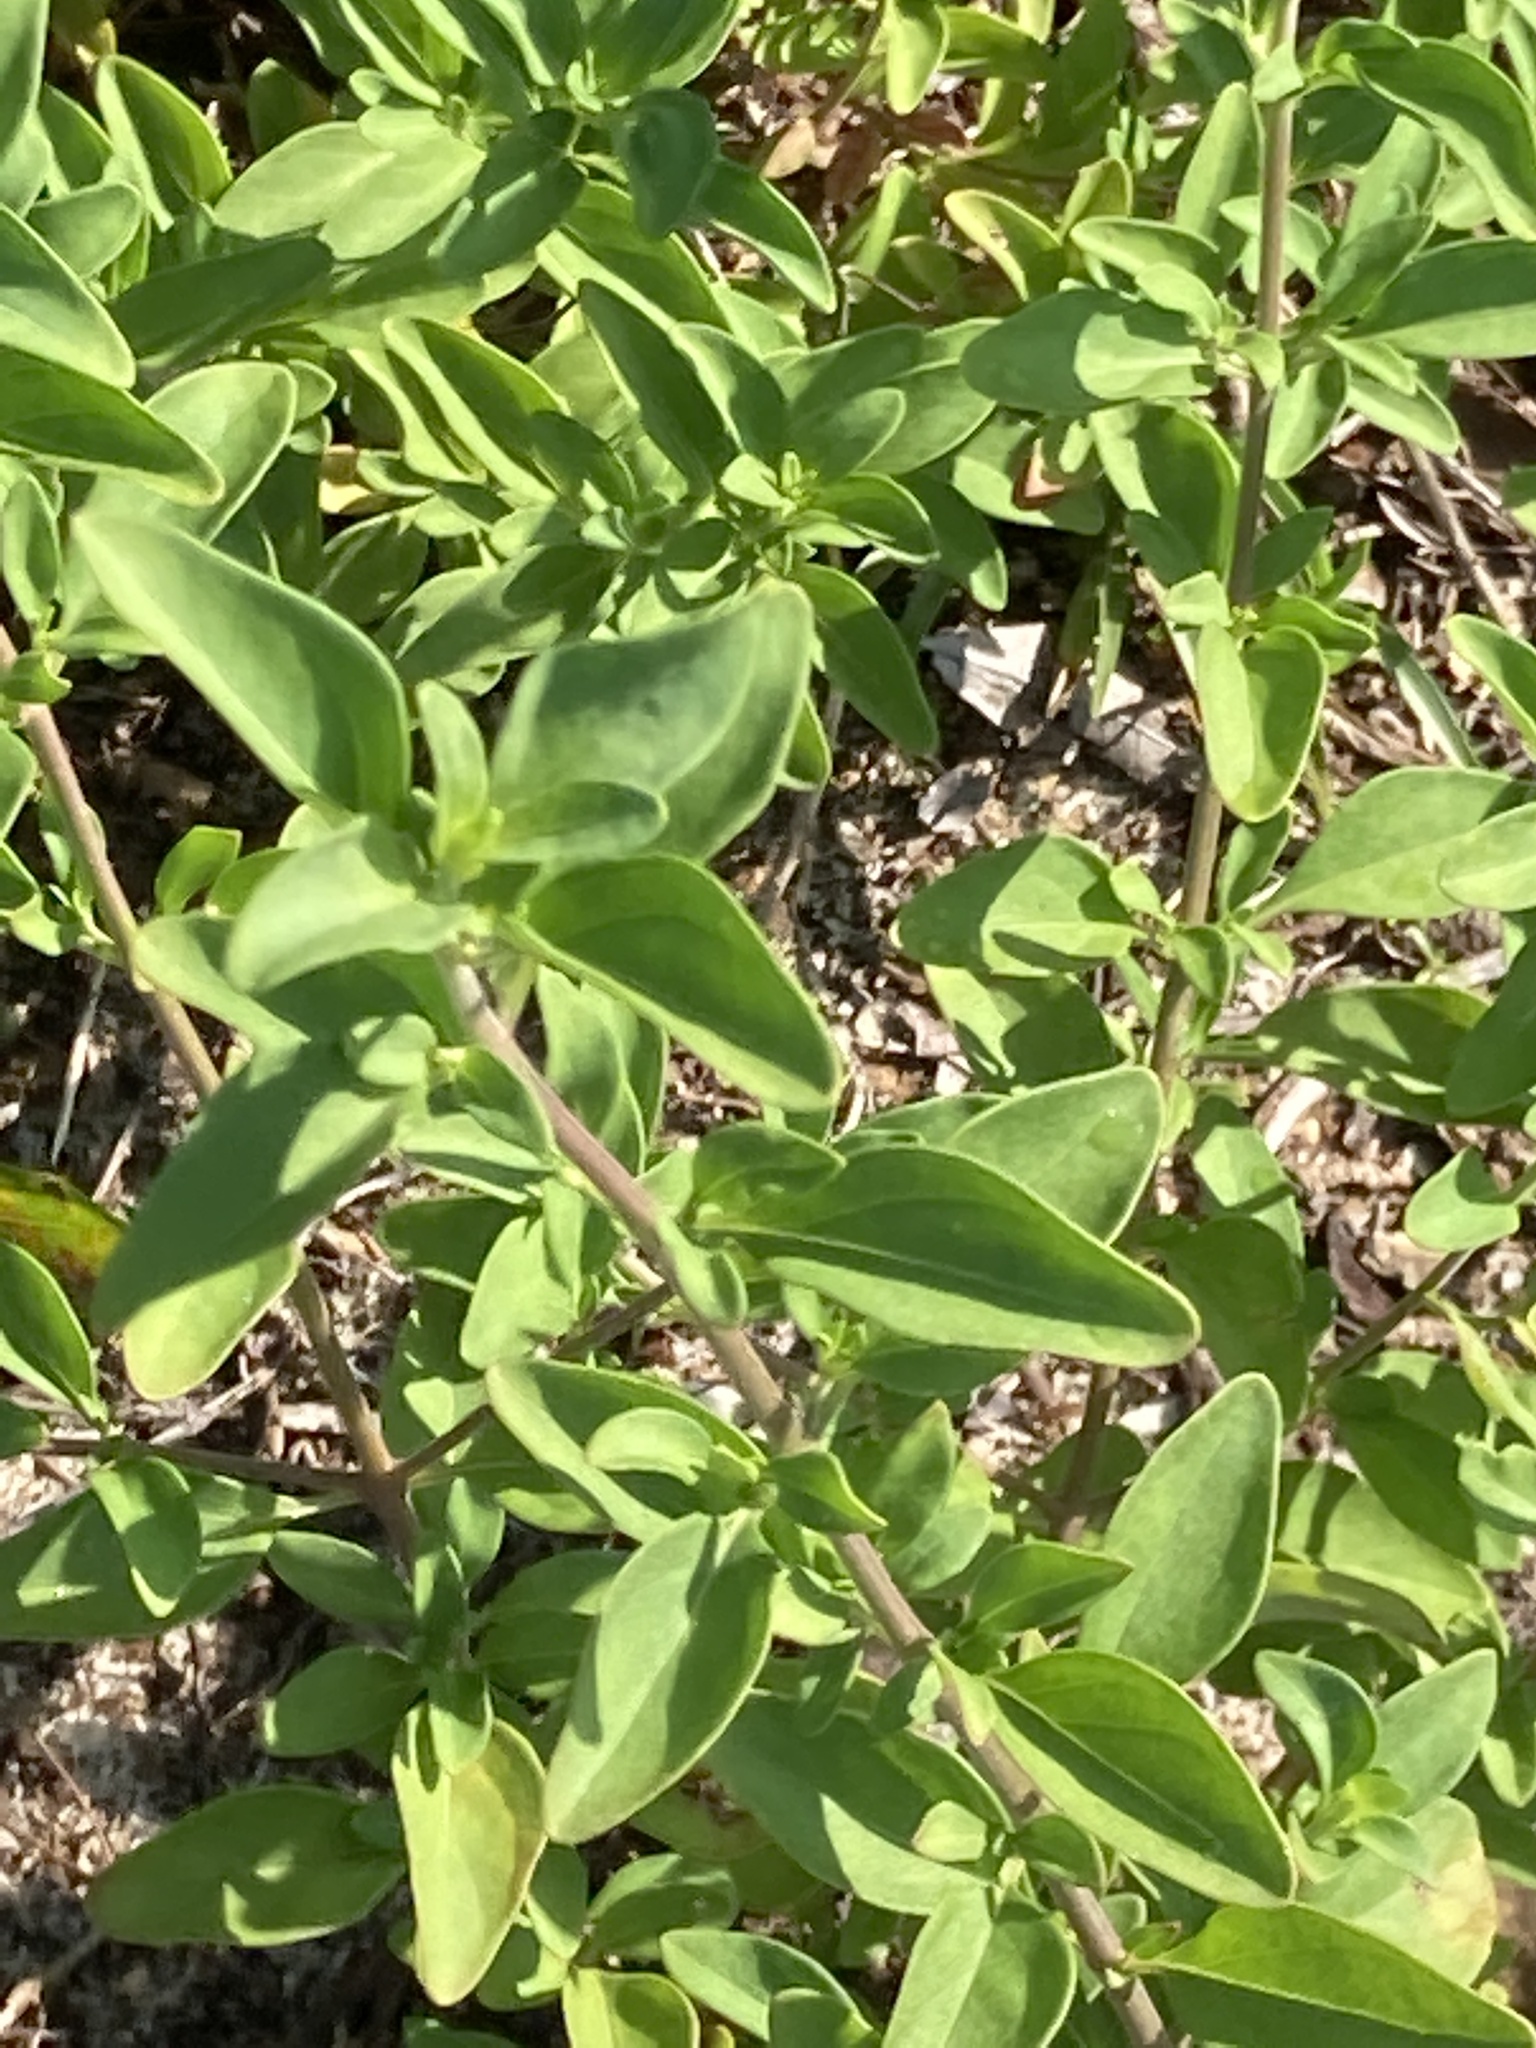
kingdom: Plantae
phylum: Tracheophyta
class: Magnoliopsida
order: Lamiales
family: Lamiaceae
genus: Trichostema
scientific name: Trichostema fruticosum
